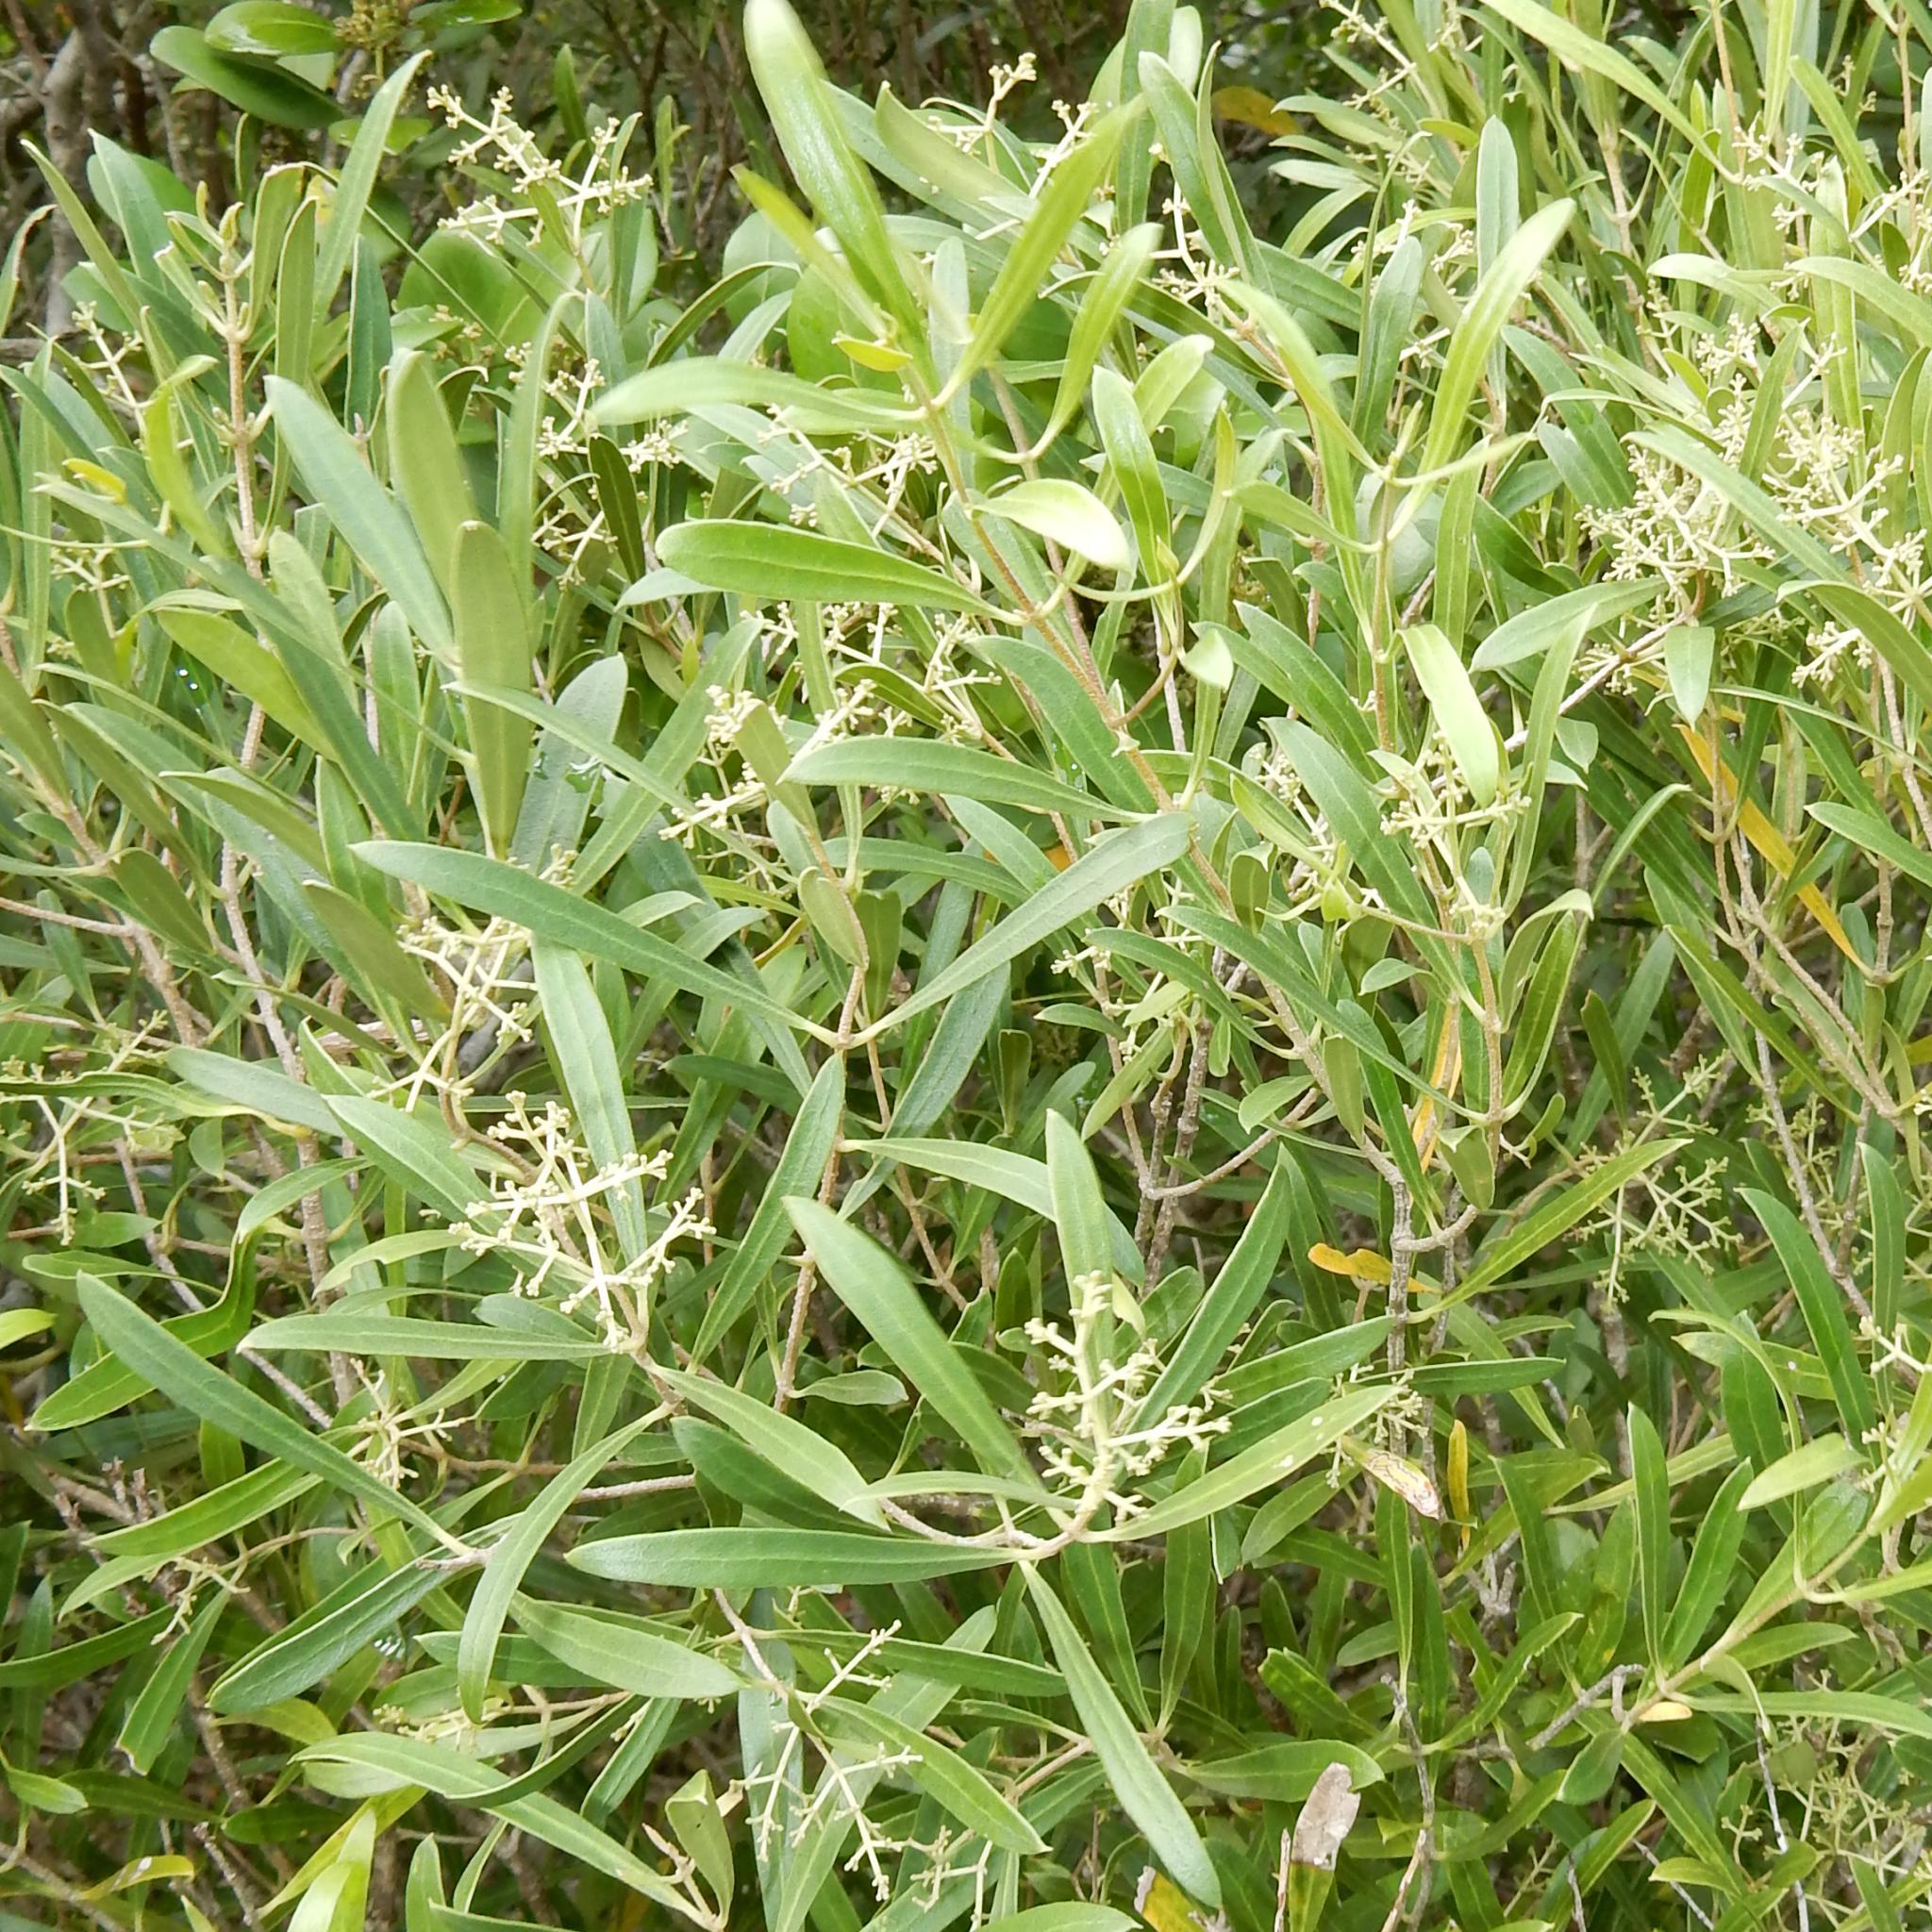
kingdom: Plantae
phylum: Tracheophyta
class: Magnoliopsida
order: Lamiales
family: Oleaceae
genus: Olea
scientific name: Olea exasperata
